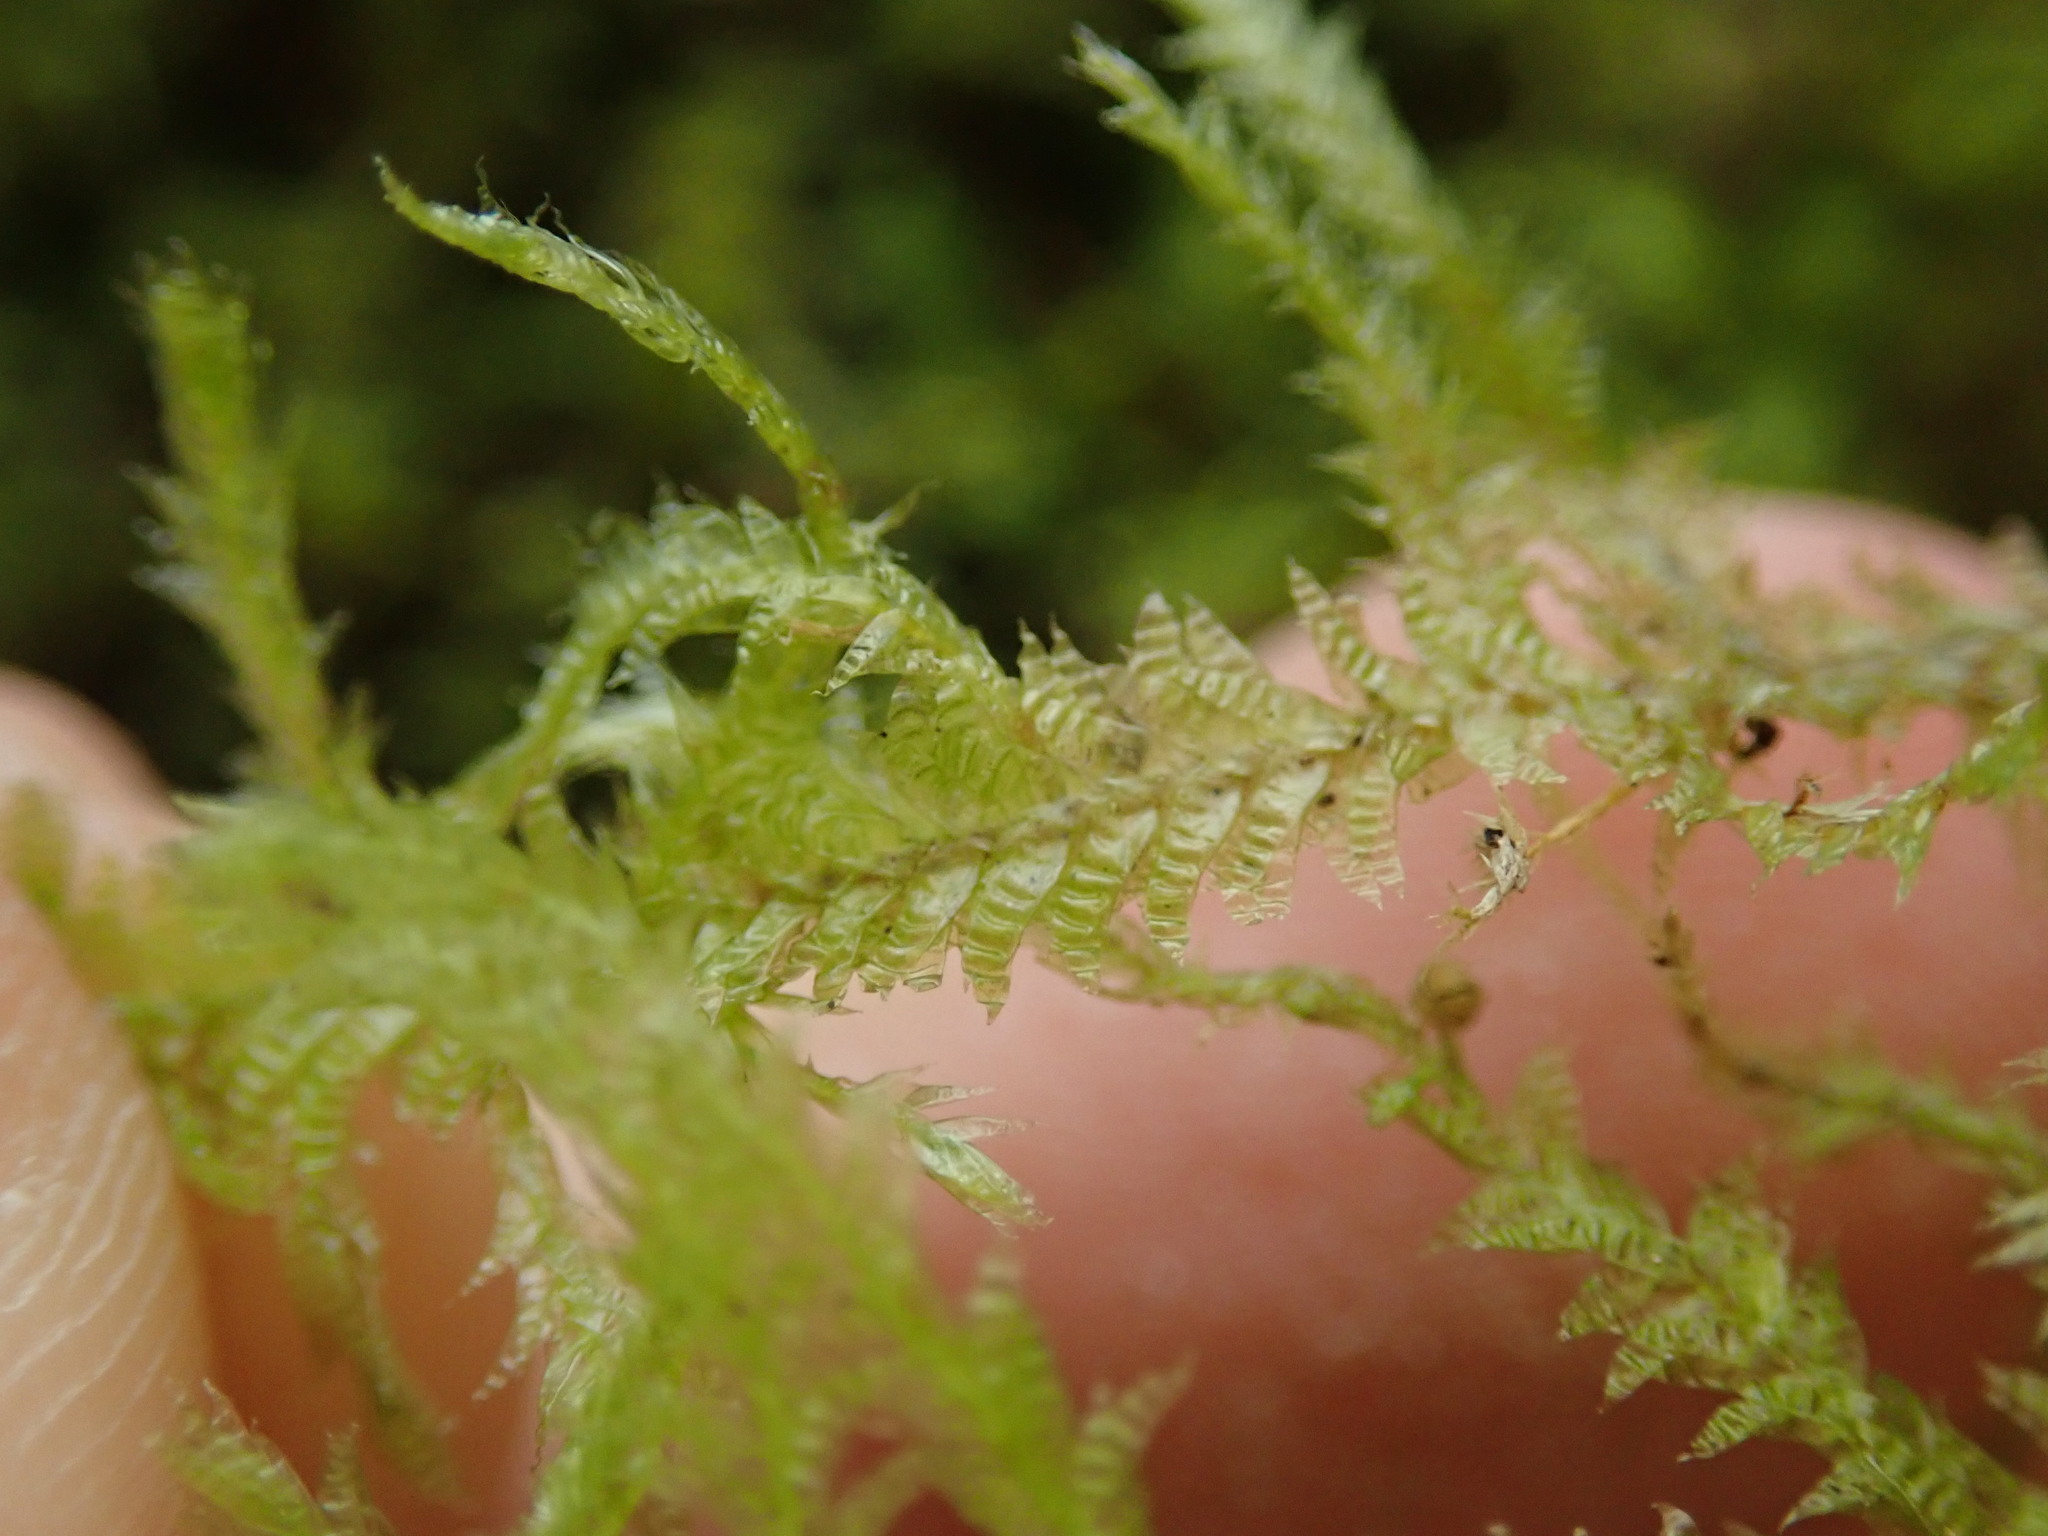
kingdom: Plantae
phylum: Bryophyta
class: Bryopsida
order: Hypnales
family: Neckeraceae
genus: Neckera
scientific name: Neckera douglasii
